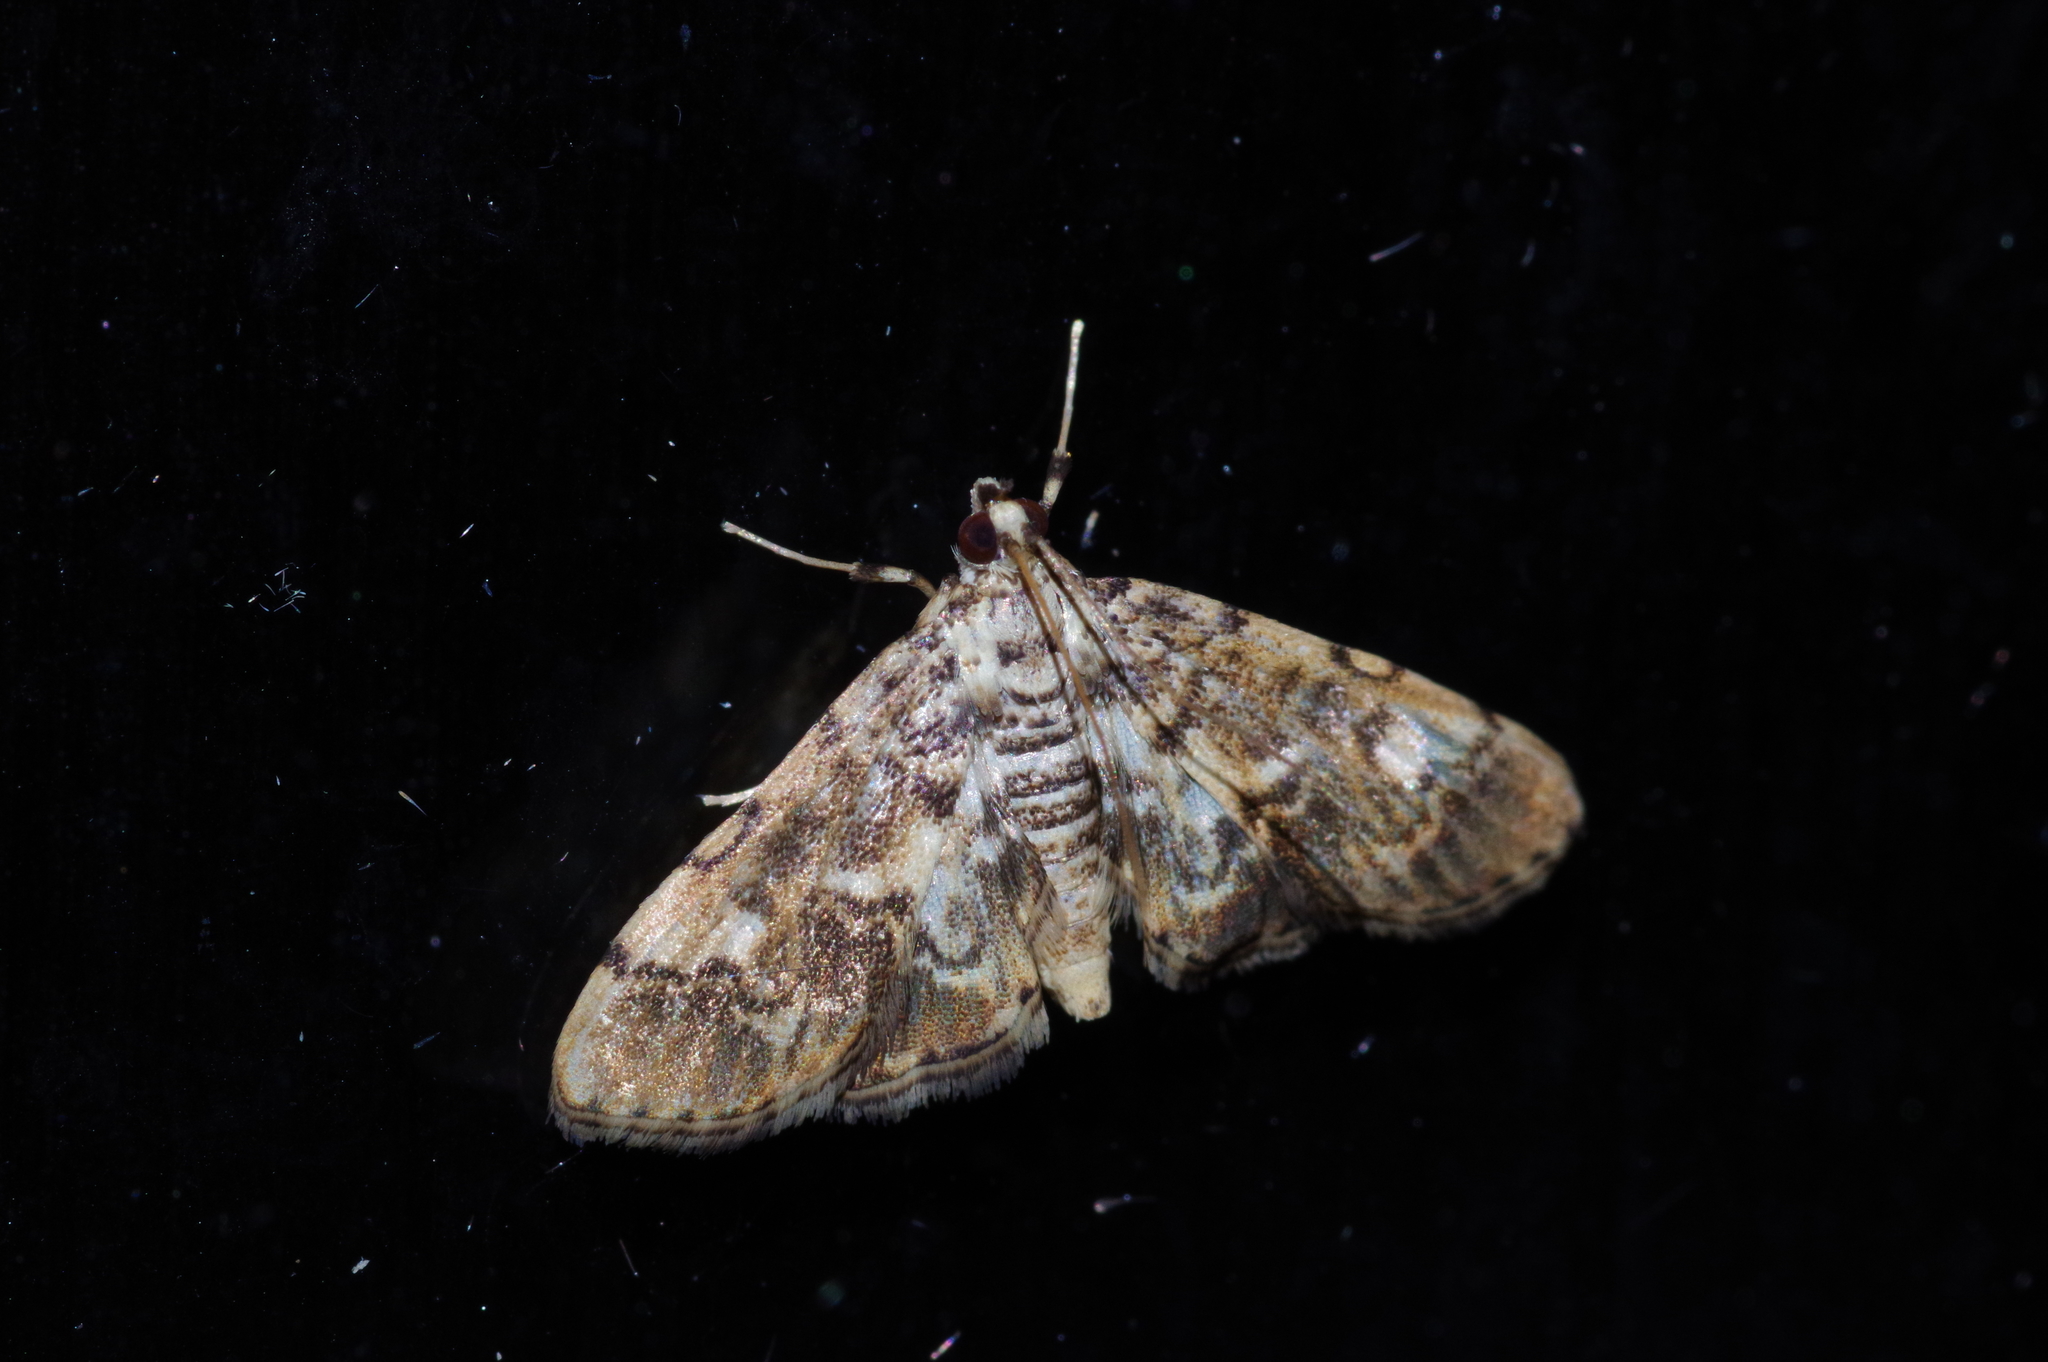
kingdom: Animalia
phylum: Arthropoda
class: Insecta
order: Lepidoptera
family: Crambidae
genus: Lamprosema
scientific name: Lamprosema commixta
